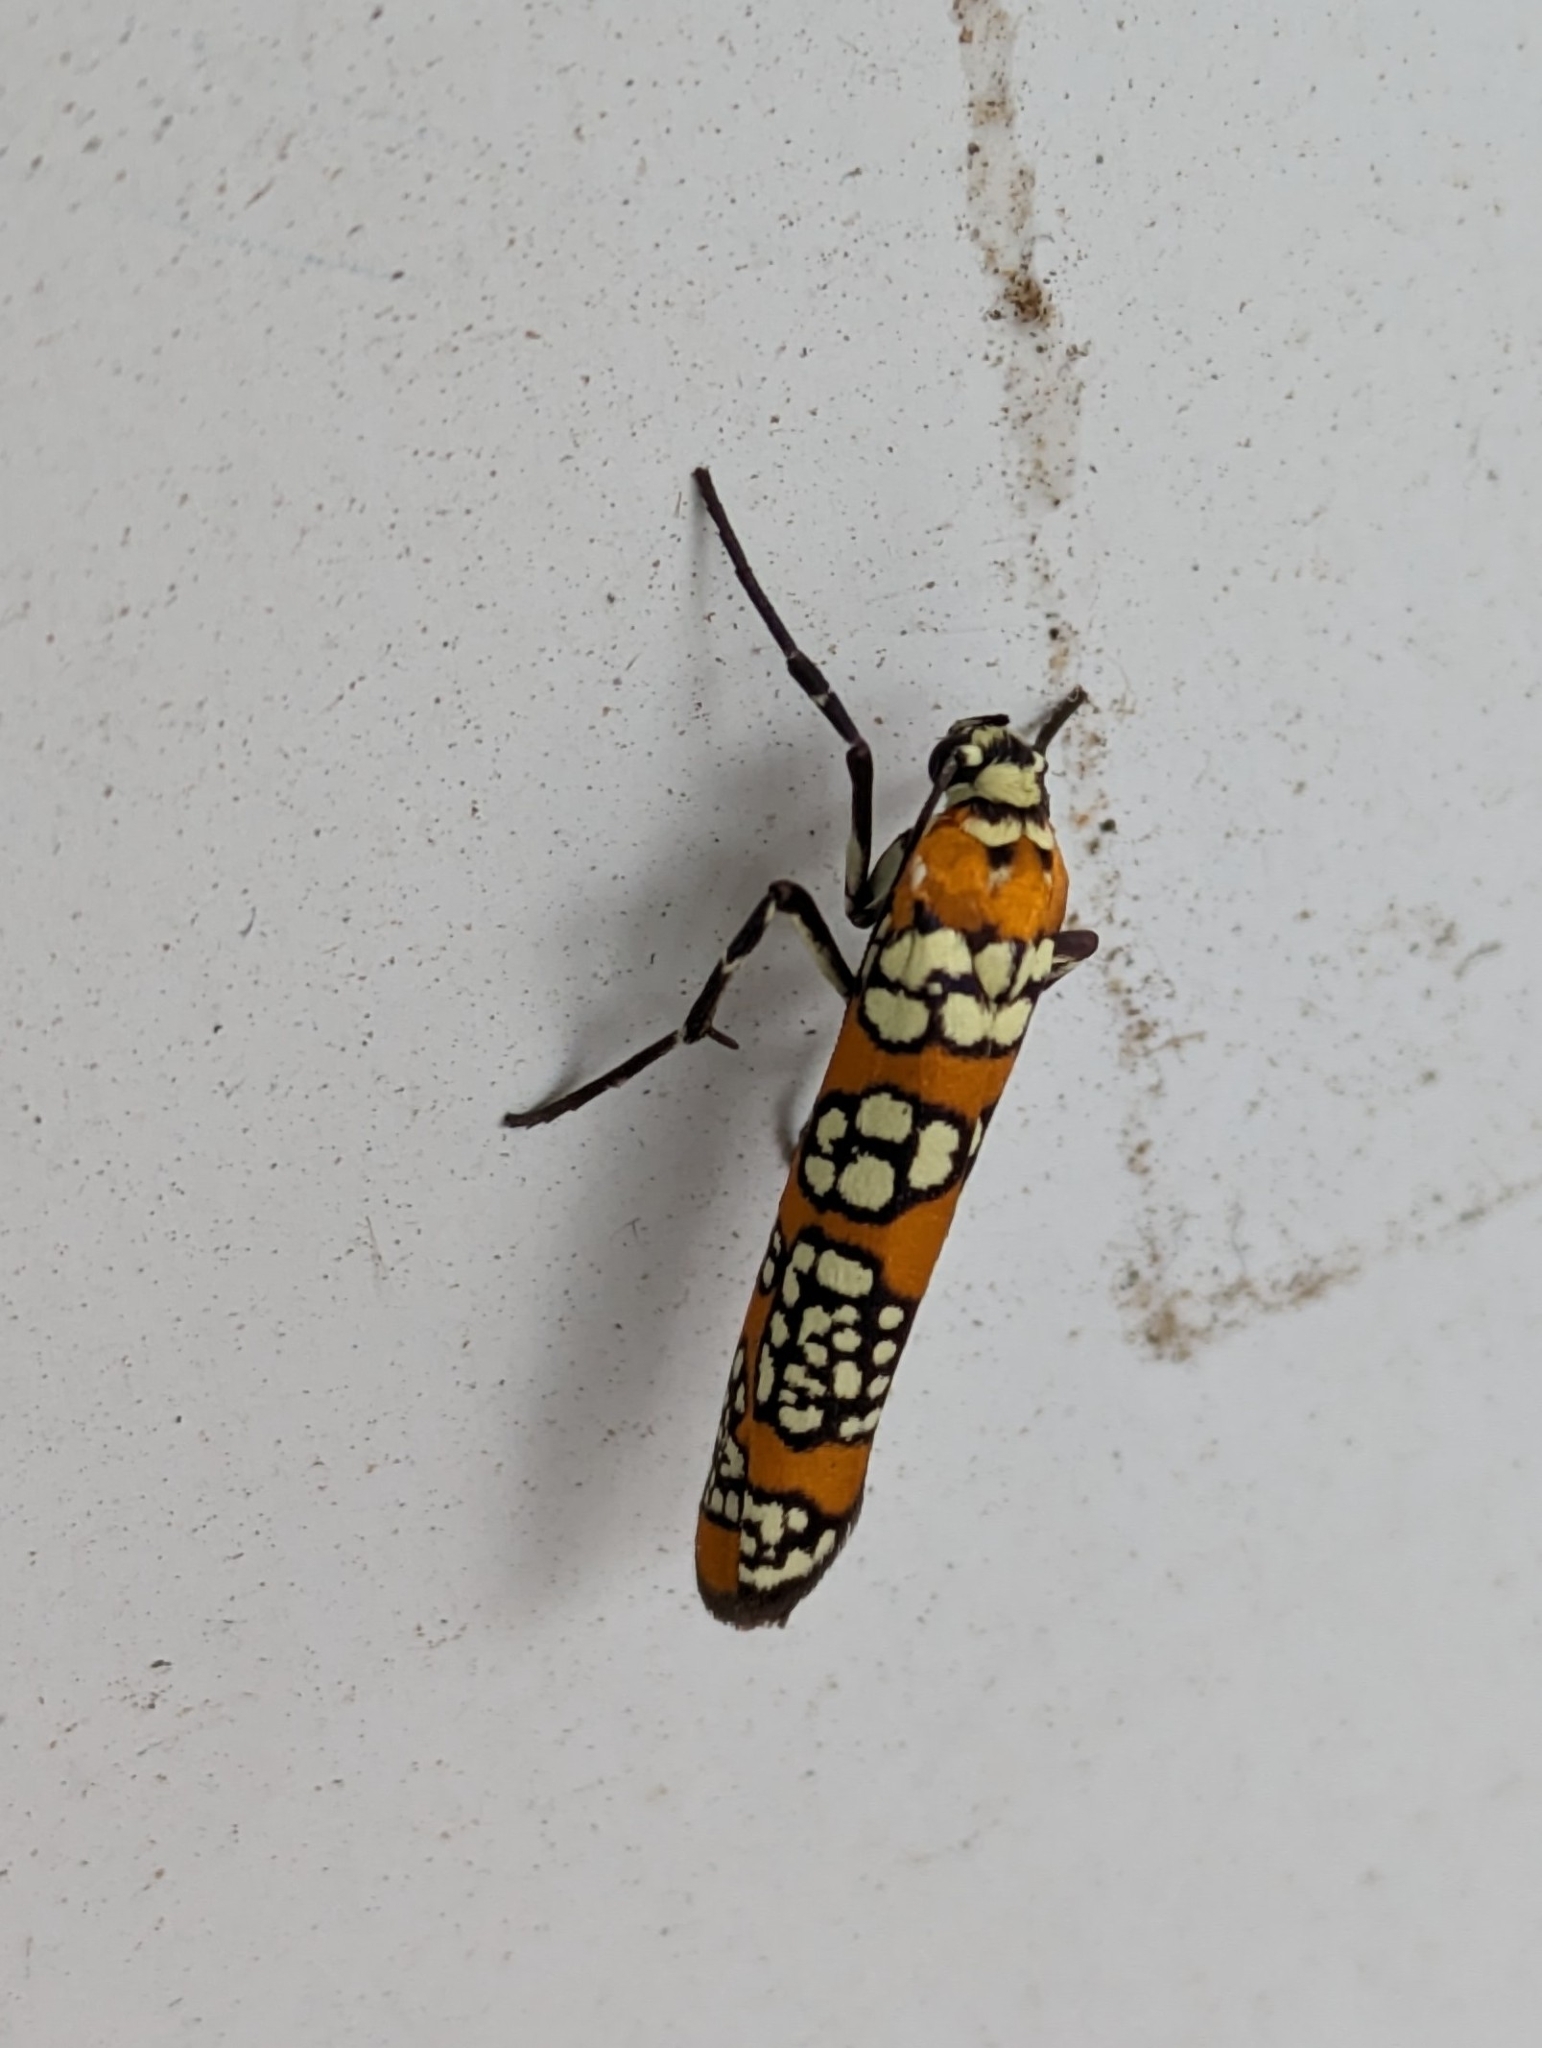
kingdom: Animalia
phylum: Arthropoda
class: Insecta
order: Lepidoptera
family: Attevidae
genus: Atteva
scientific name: Atteva punctella
